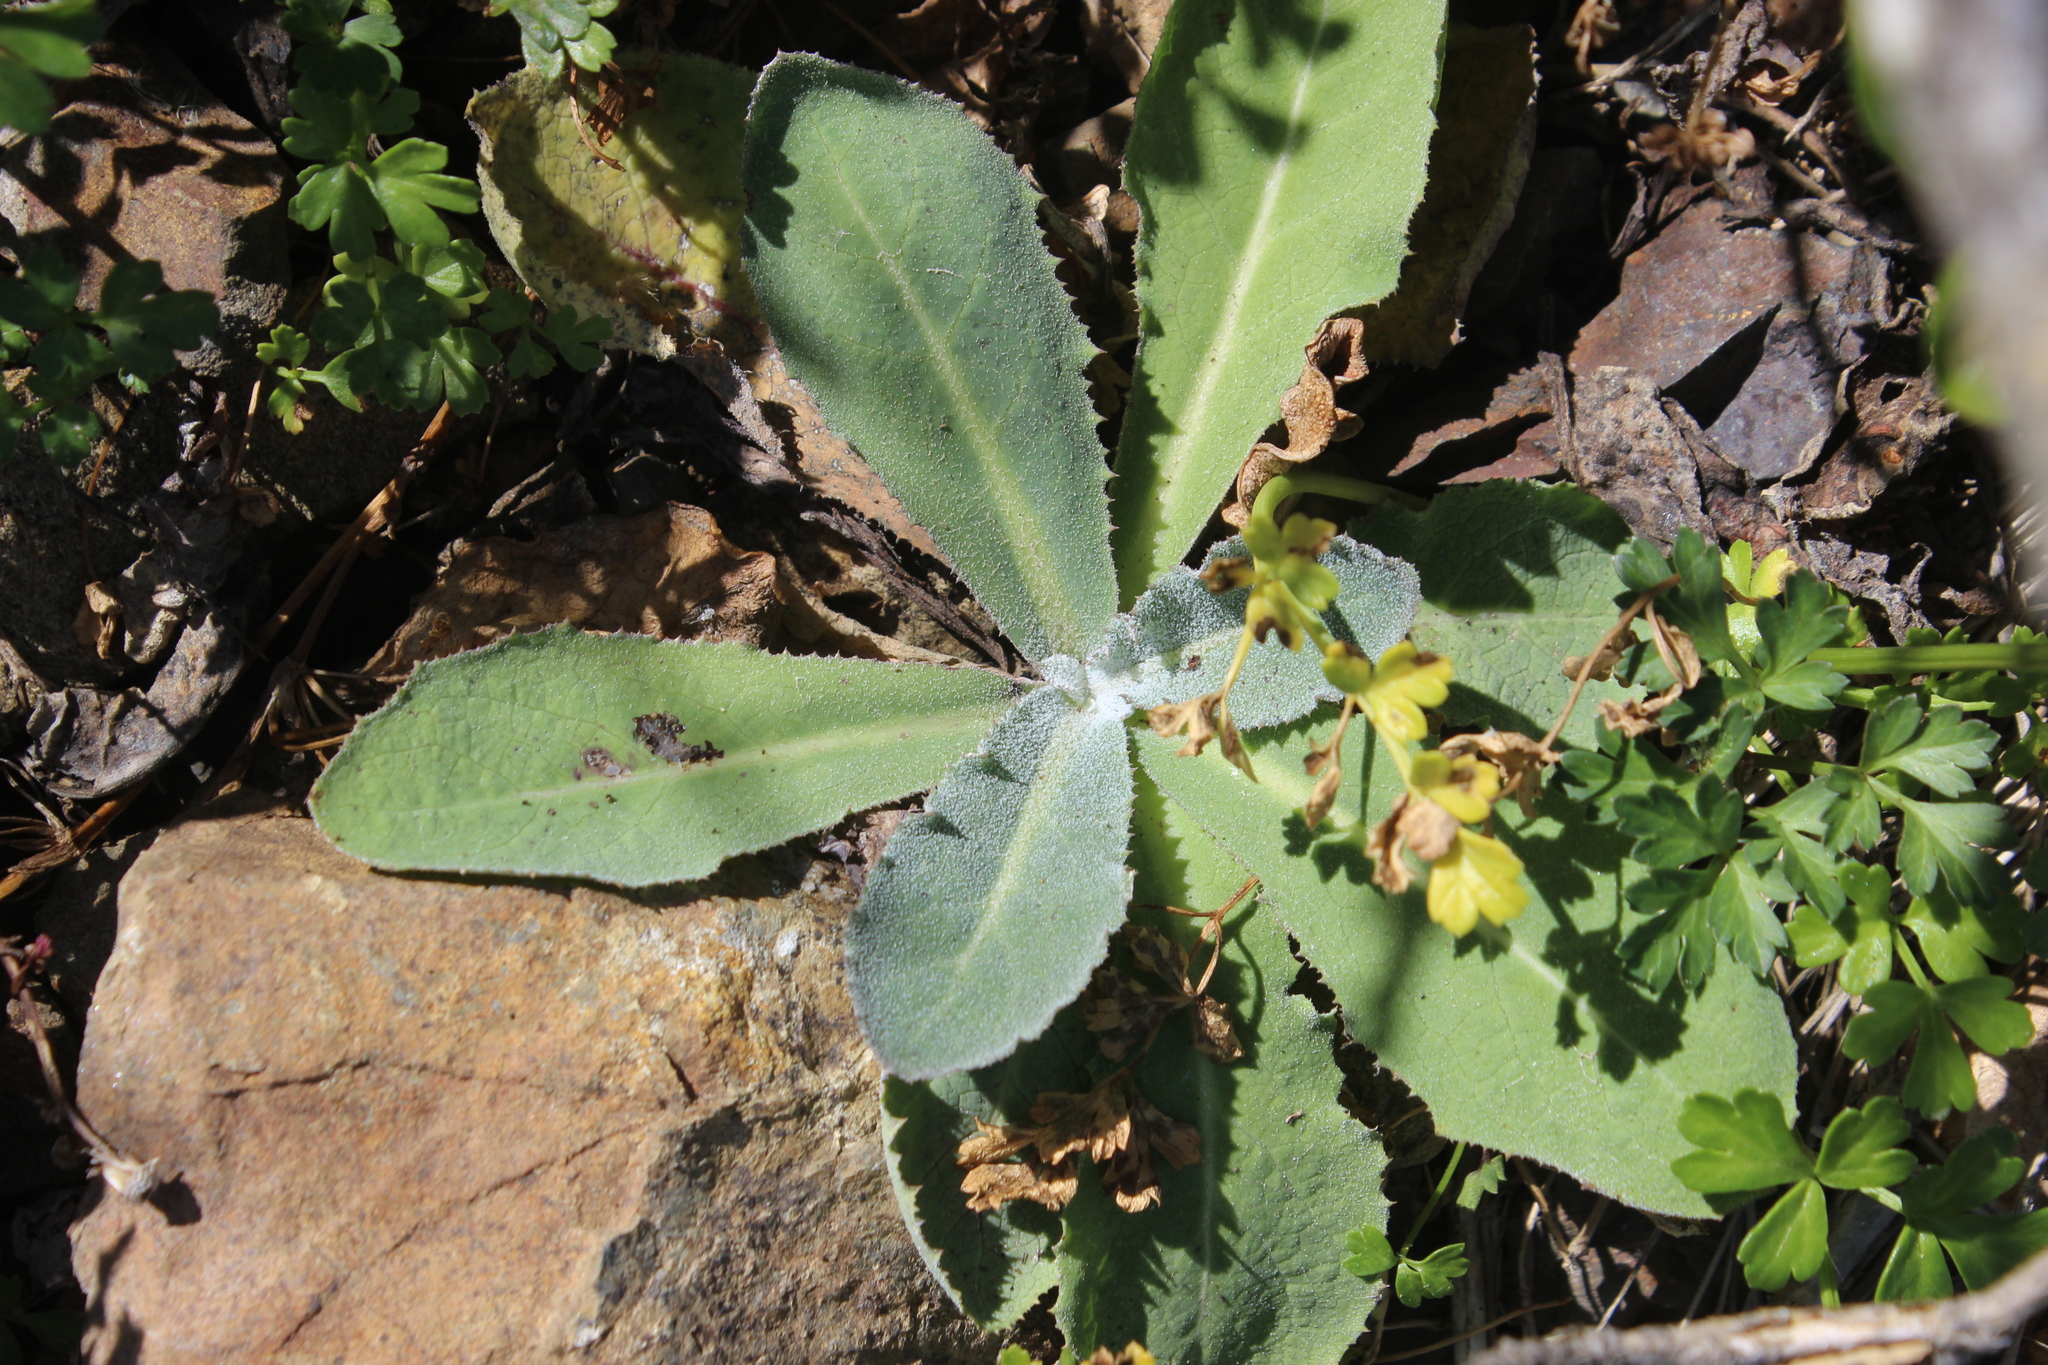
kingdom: Plantae
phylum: Tracheophyta
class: Magnoliopsida
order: Asterales
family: Asteraceae
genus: Sonchus
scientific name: Sonchus kirkii
